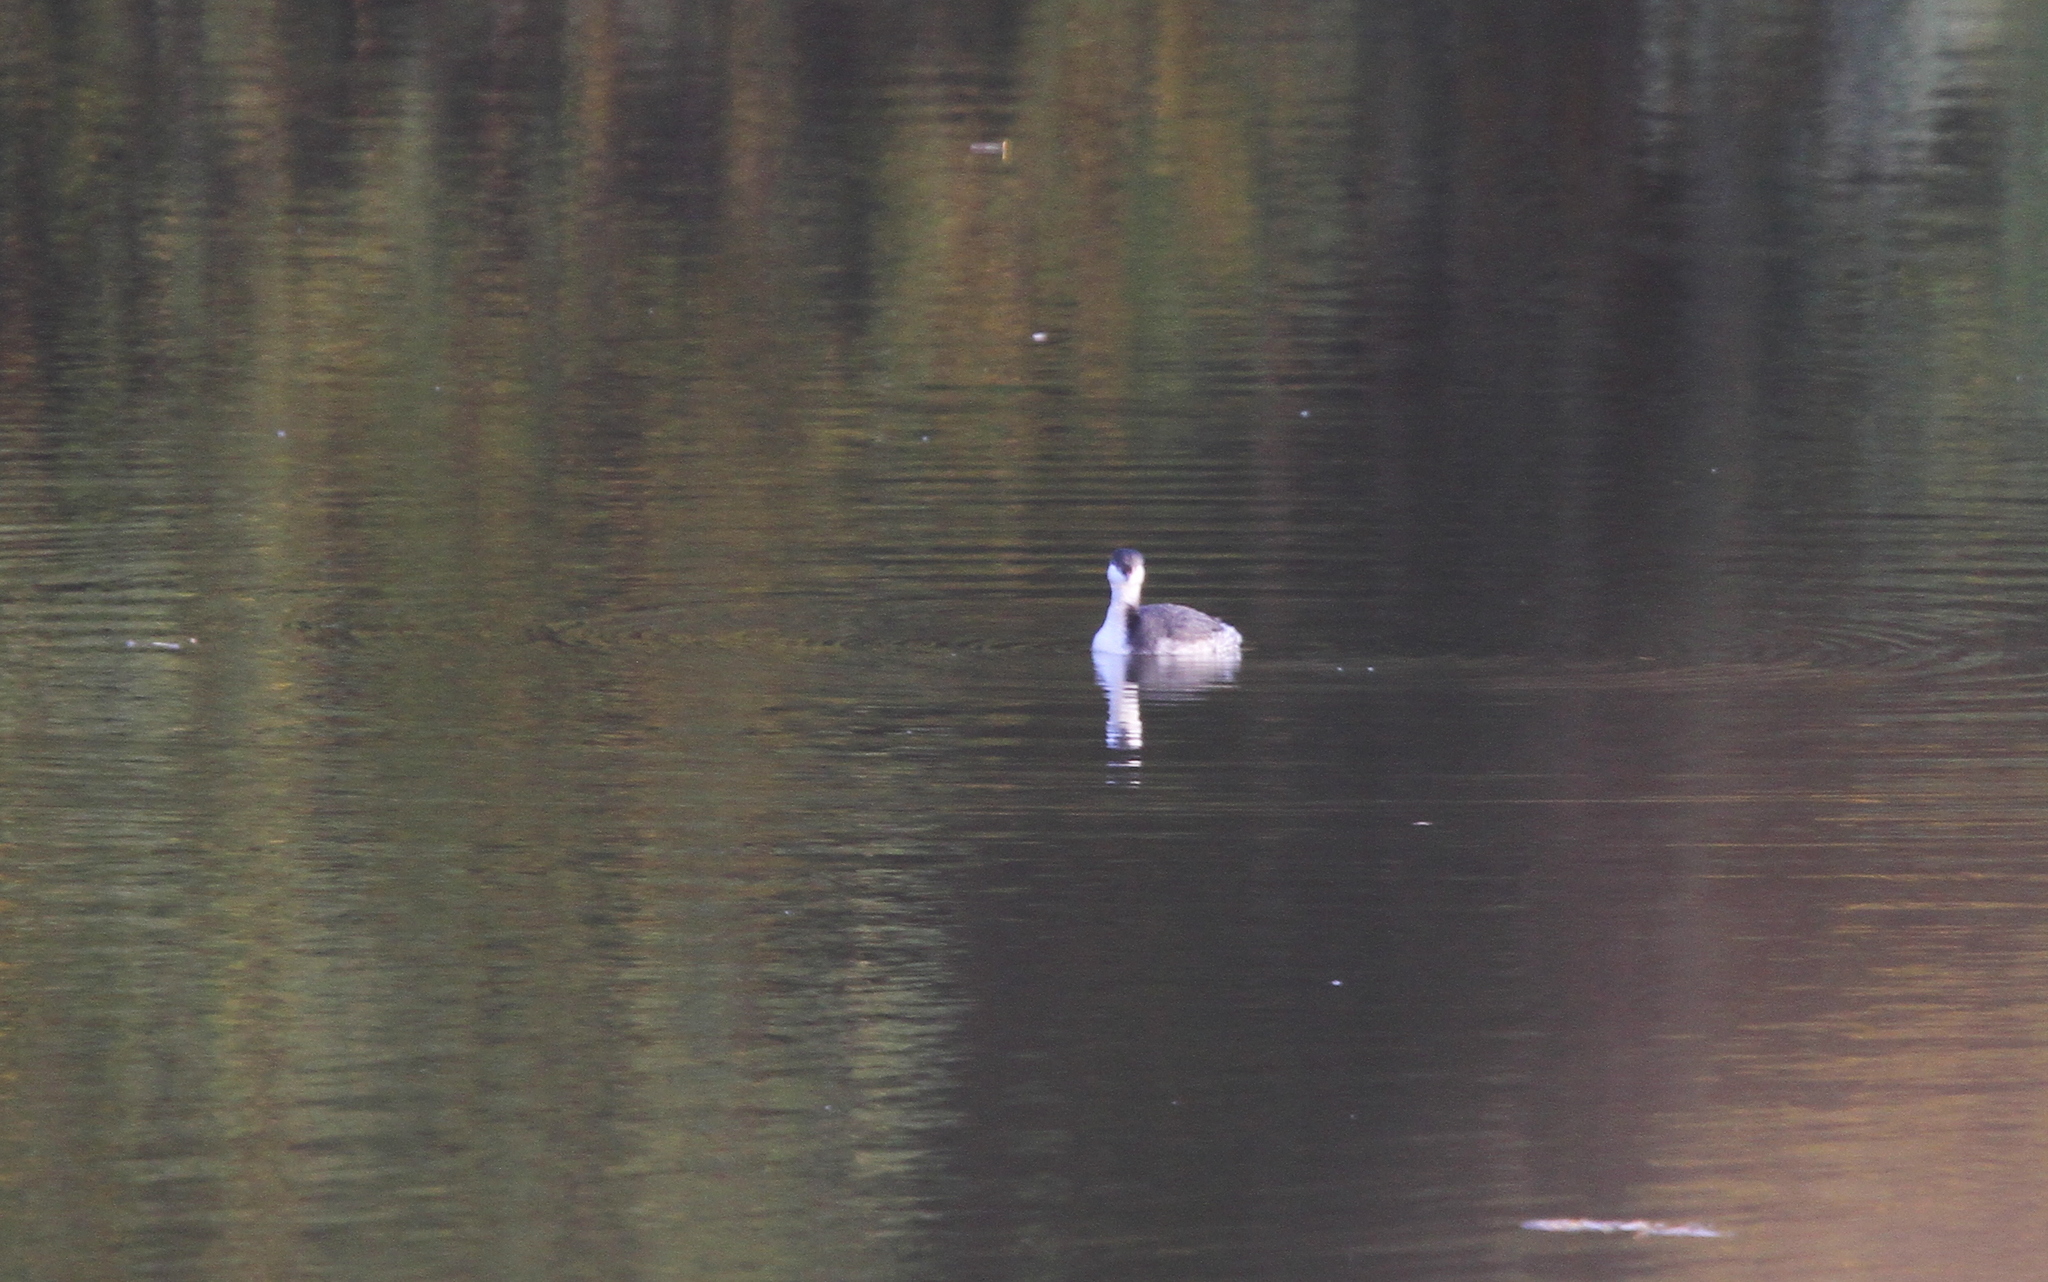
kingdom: Animalia
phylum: Chordata
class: Aves
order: Podicipediformes
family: Podicipedidae
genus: Podiceps
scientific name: Podiceps auritus
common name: Horned grebe
